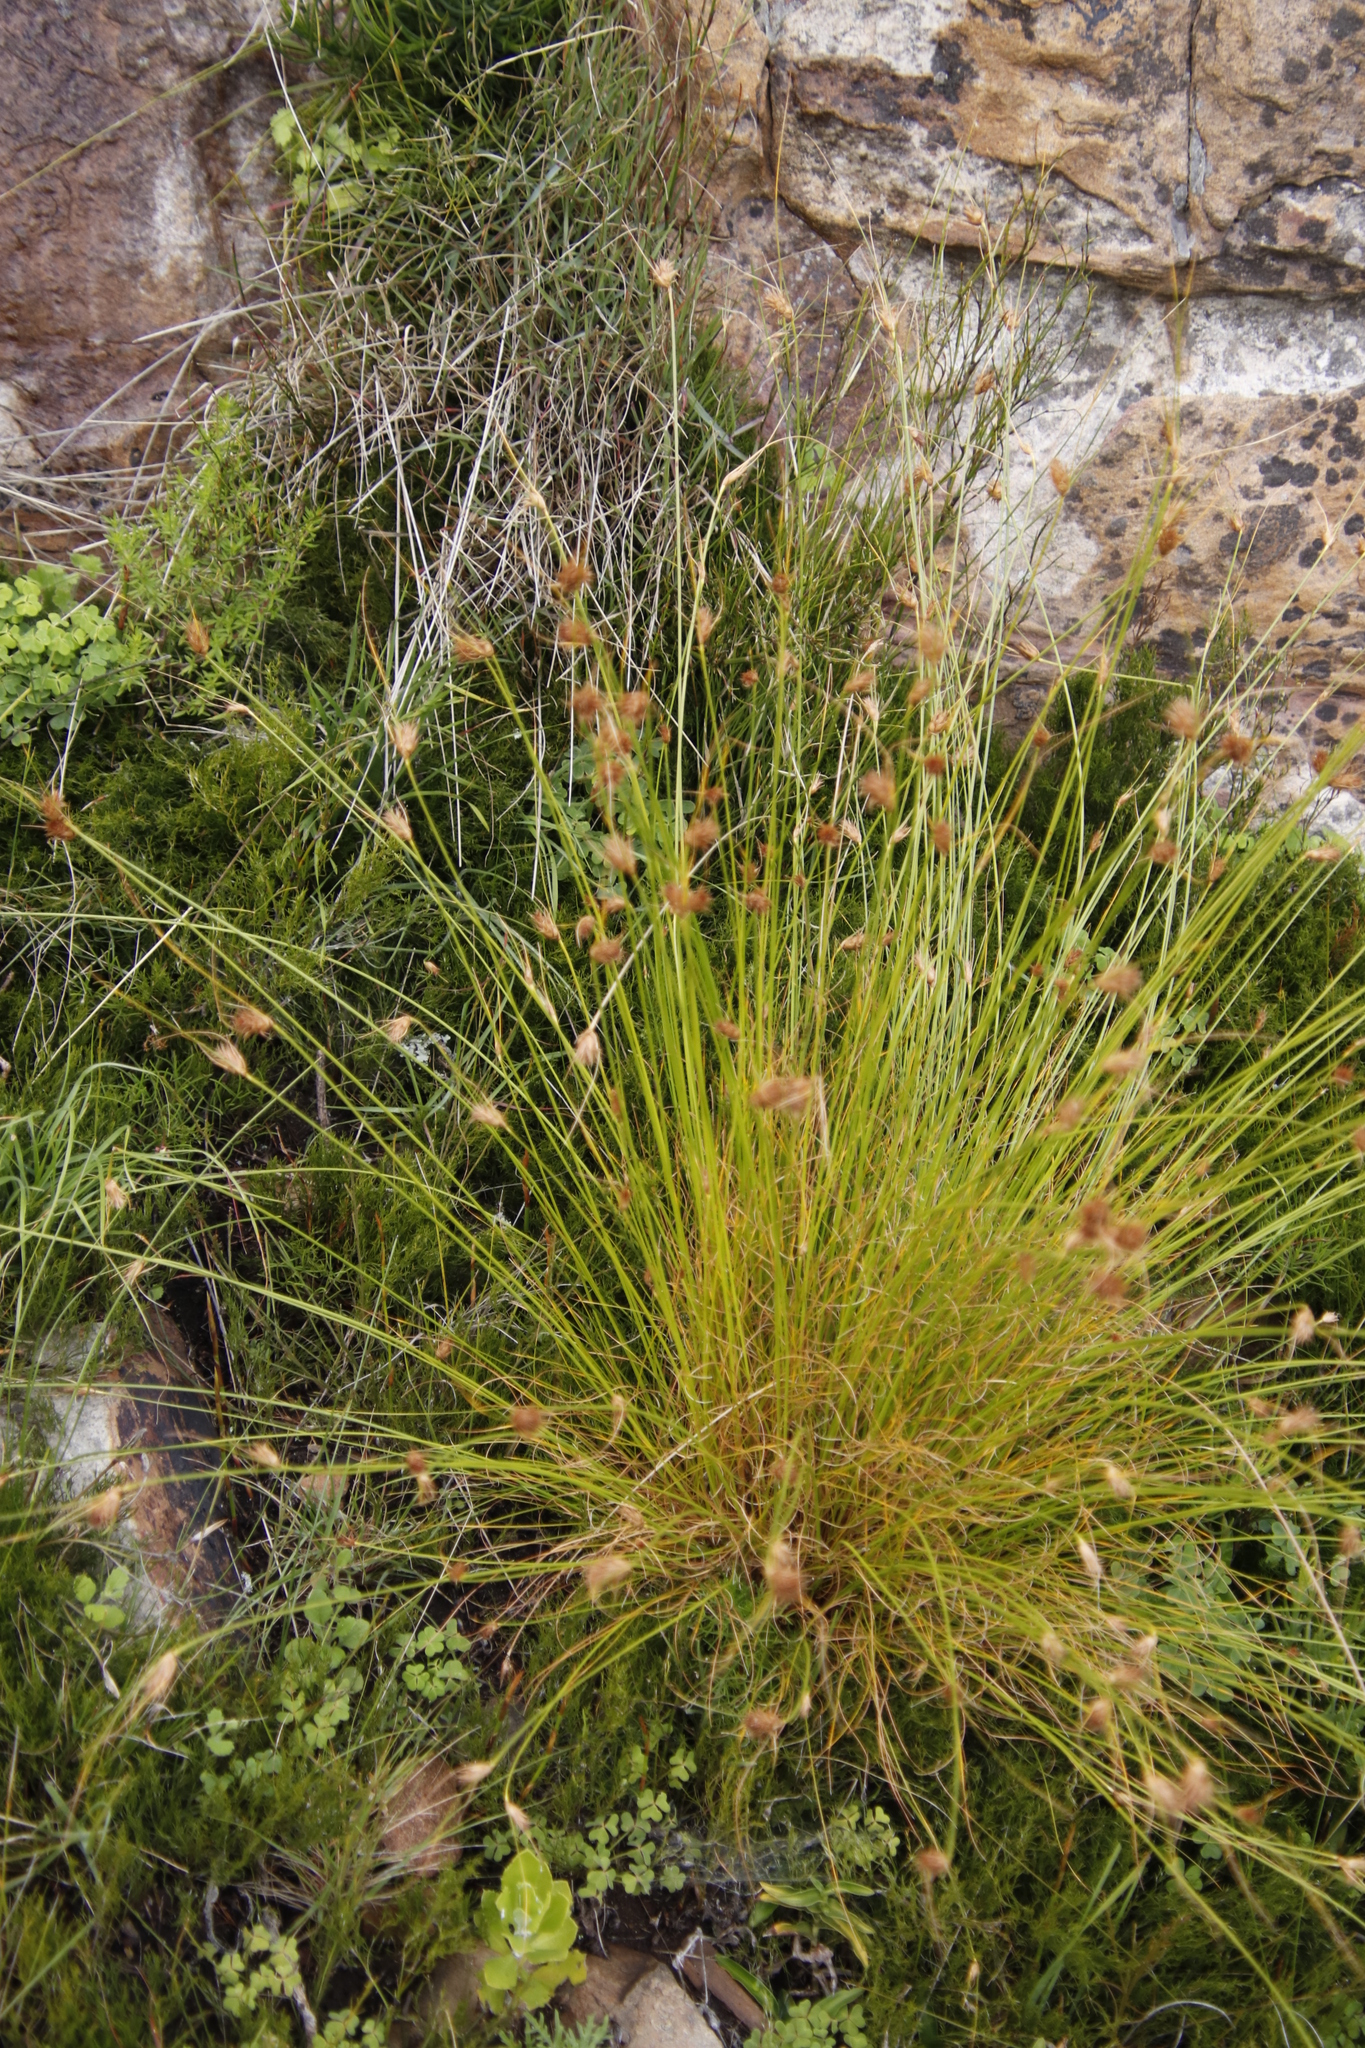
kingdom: Plantae
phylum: Tracheophyta
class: Liliopsida
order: Poales
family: Cyperaceae
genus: Ficinia
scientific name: Ficinia nigrescens
